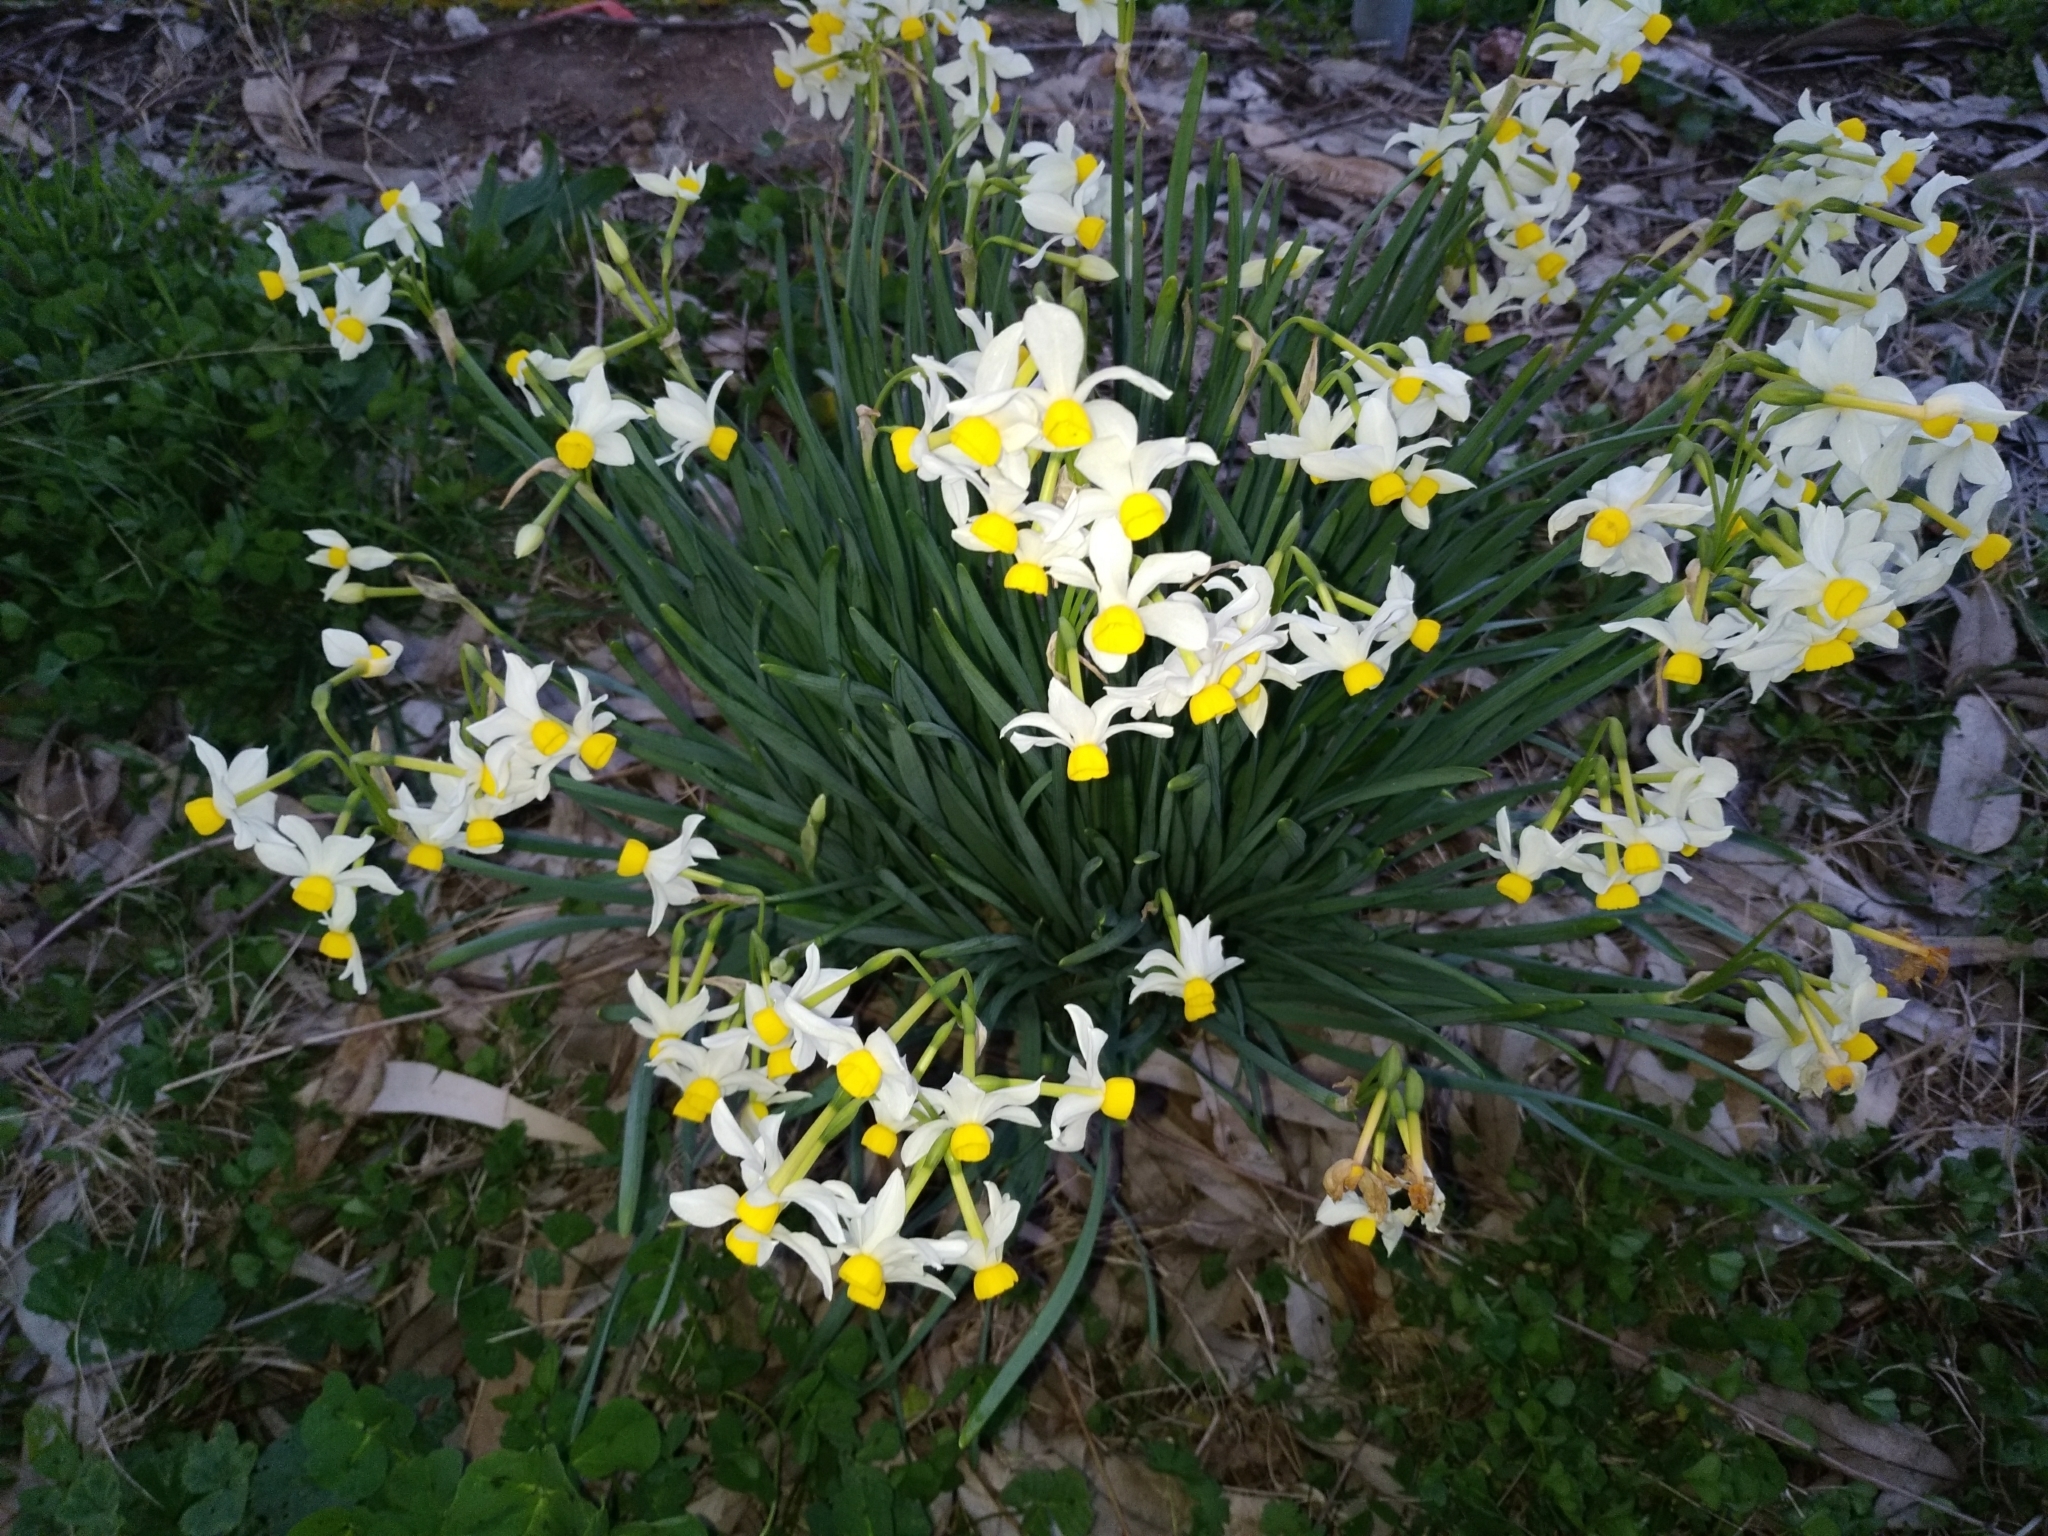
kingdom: Plantae
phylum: Tracheophyta
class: Liliopsida
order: Asparagales
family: Amaryllidaceae
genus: Narcissus
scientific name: Narcissus tazetta
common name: Bunch-flowered daffodil
